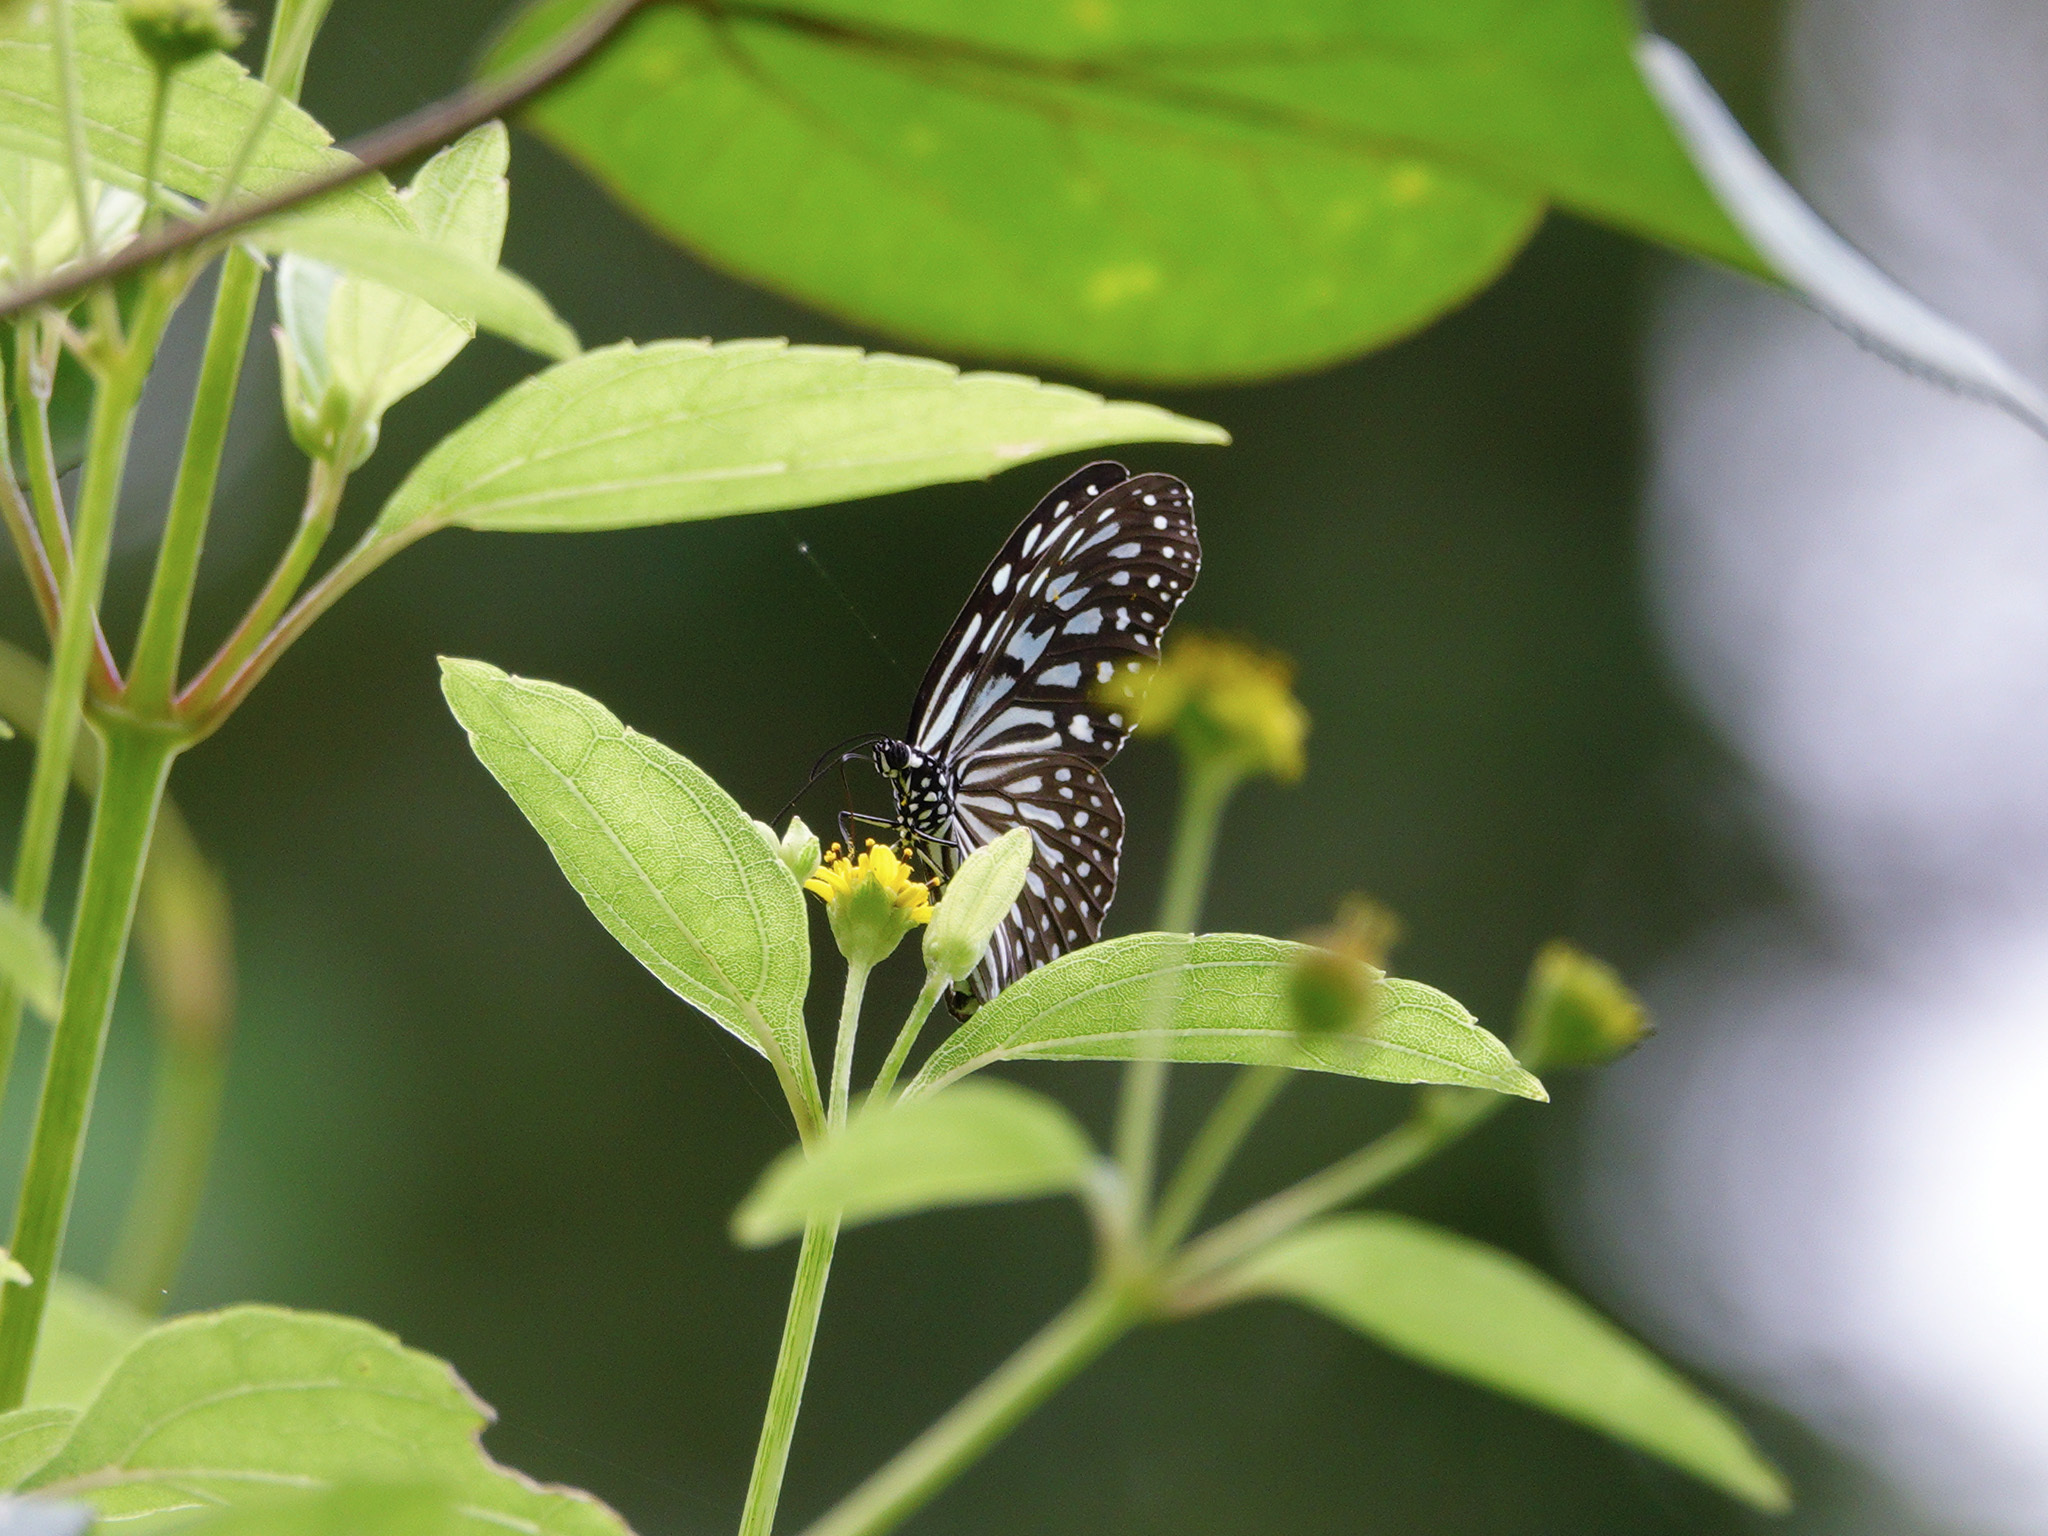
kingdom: Animalia
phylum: Arthropoda
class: Insecta
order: Lepidoptera
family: Nymphalidae
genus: Ideopsis
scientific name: Ideopsis vulgaris
